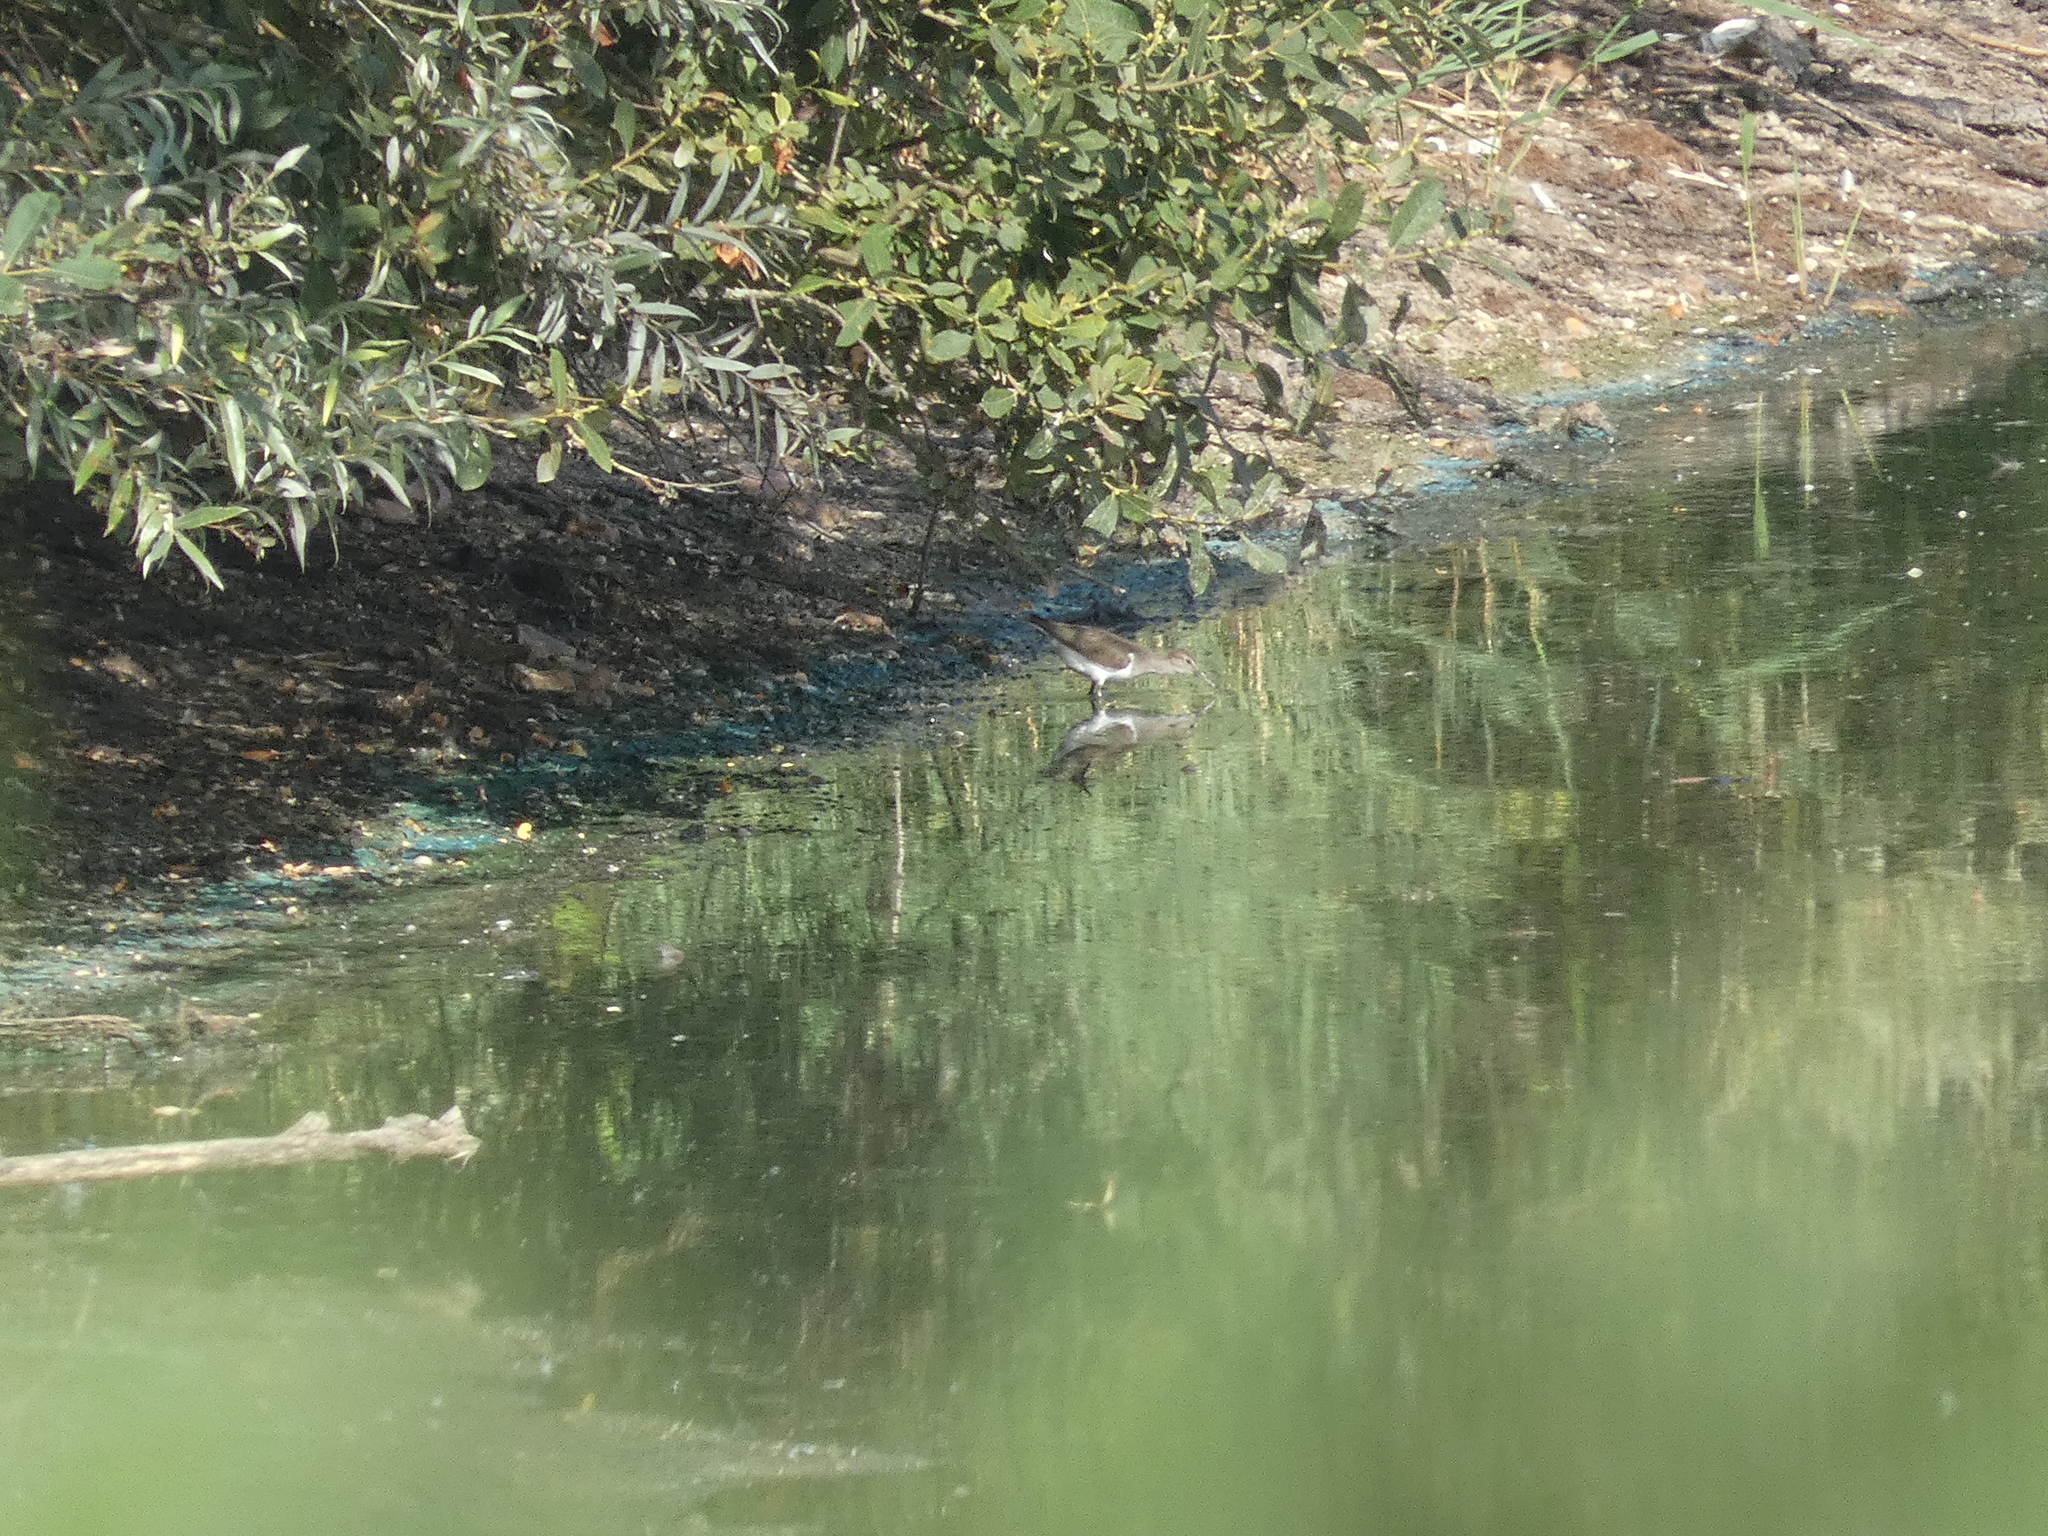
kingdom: Animalia
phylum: Chordata
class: Aves
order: Charadriiformes
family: Scolopacidae
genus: Actitis
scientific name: Actitis hypoleucos
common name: Common sandpiper
